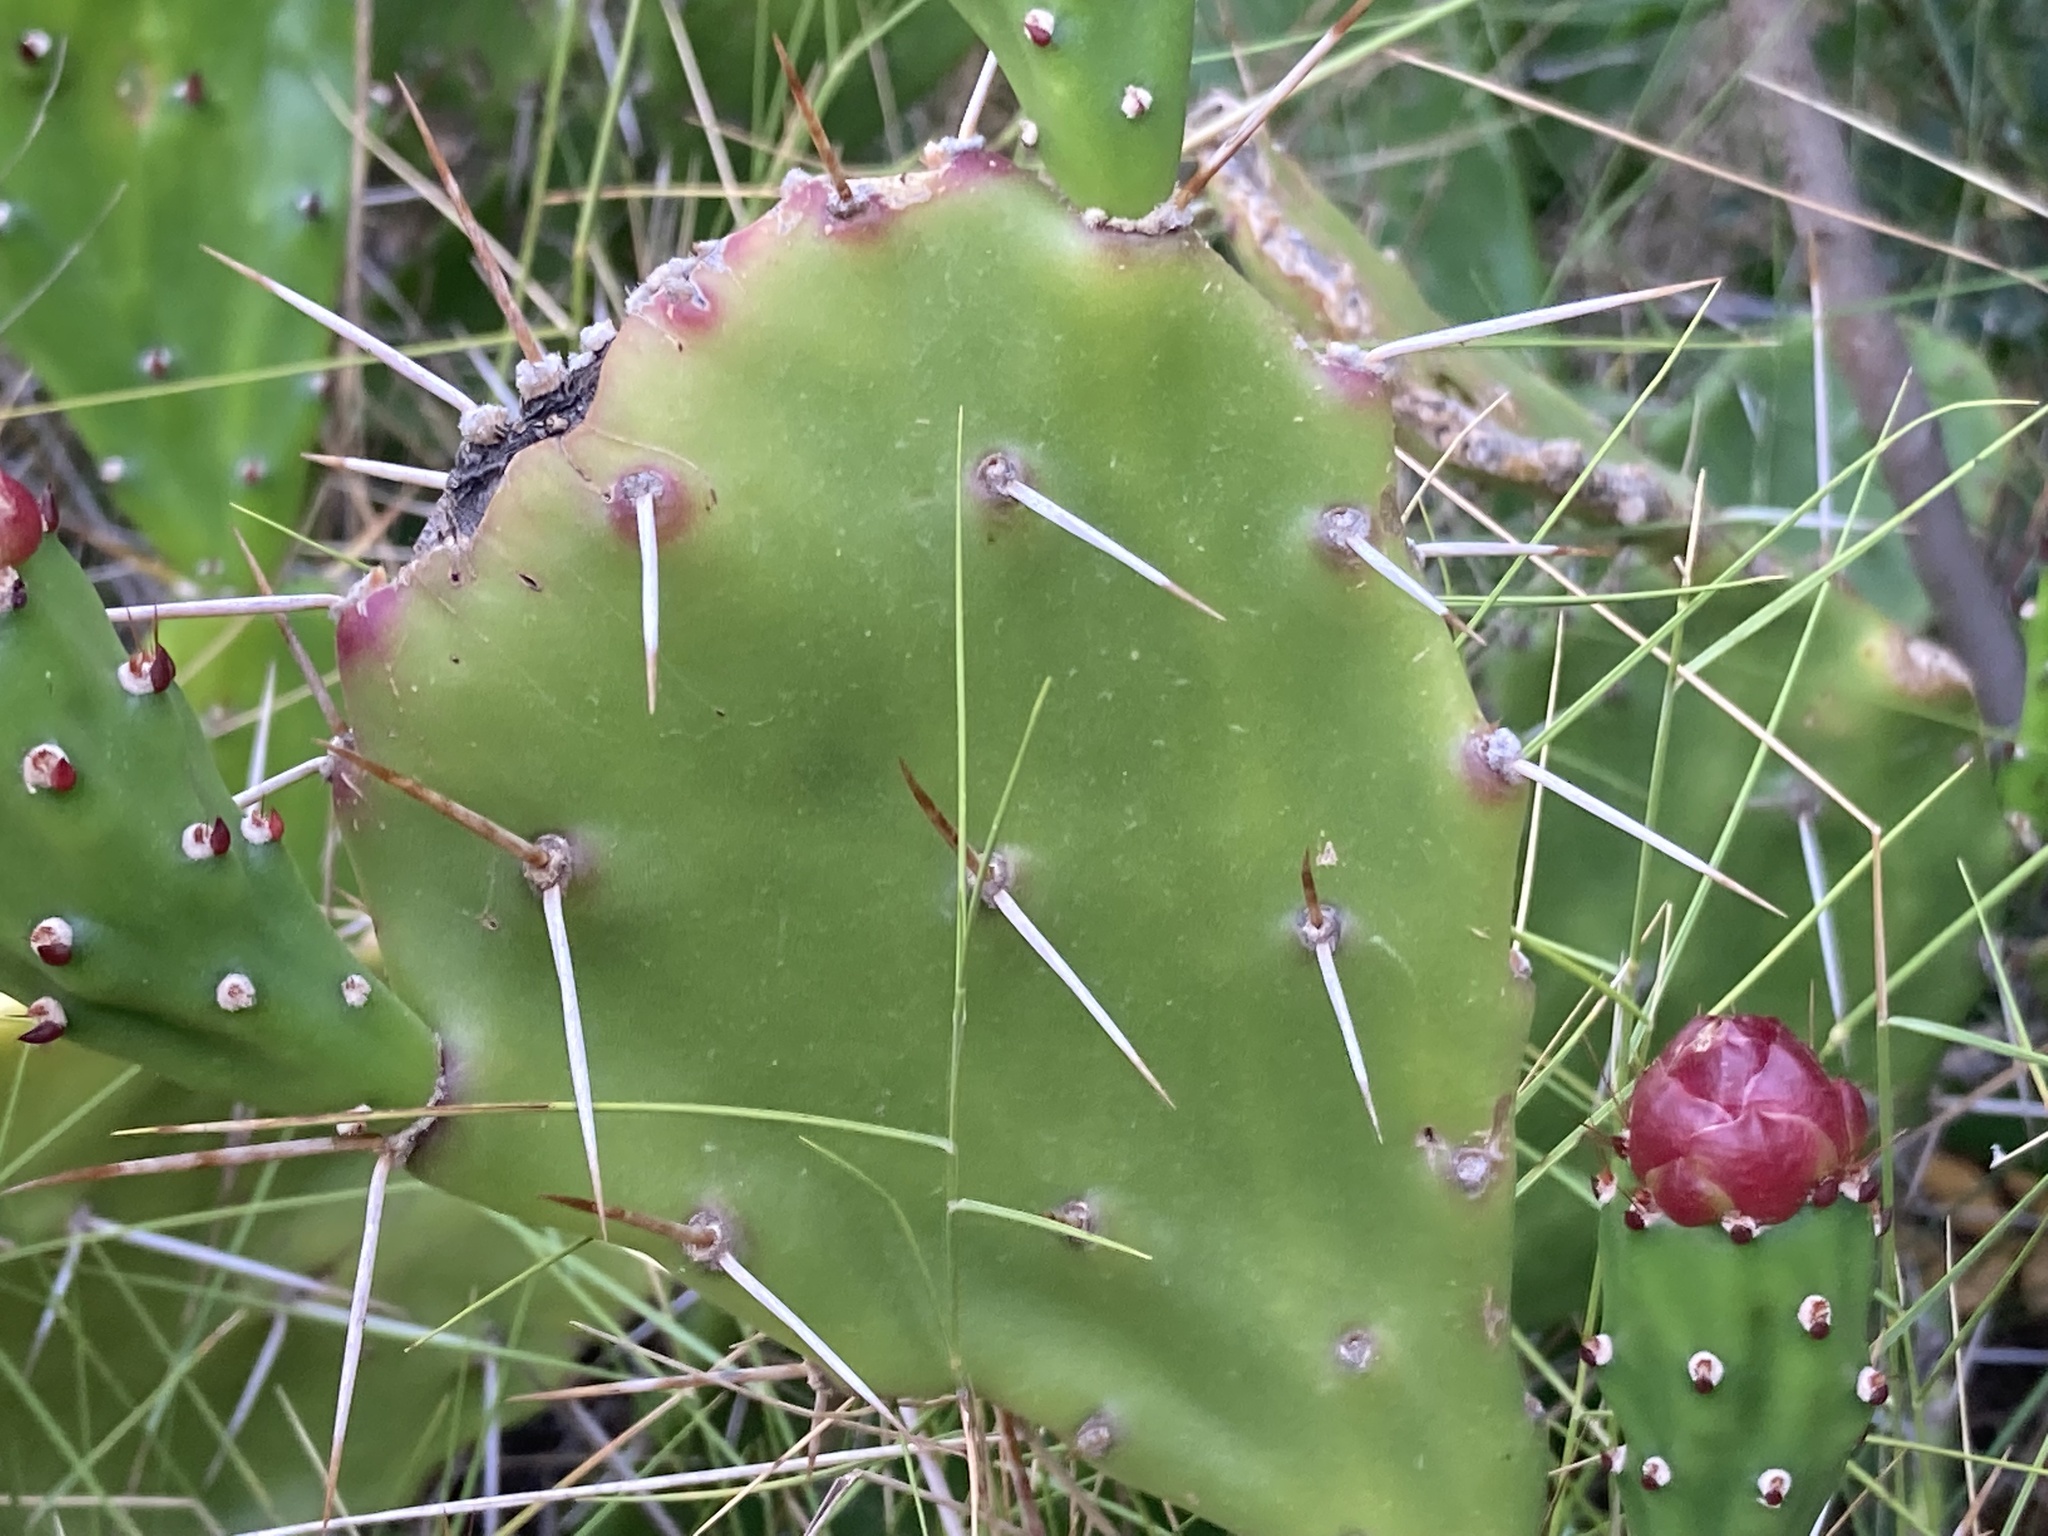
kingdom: Plantae
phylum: Tracheophyta
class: Magnoliopsida
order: Caryophyllales
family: Cactaceae
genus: Opuntia
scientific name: Opuntia monacantha
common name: Common pricklypear
